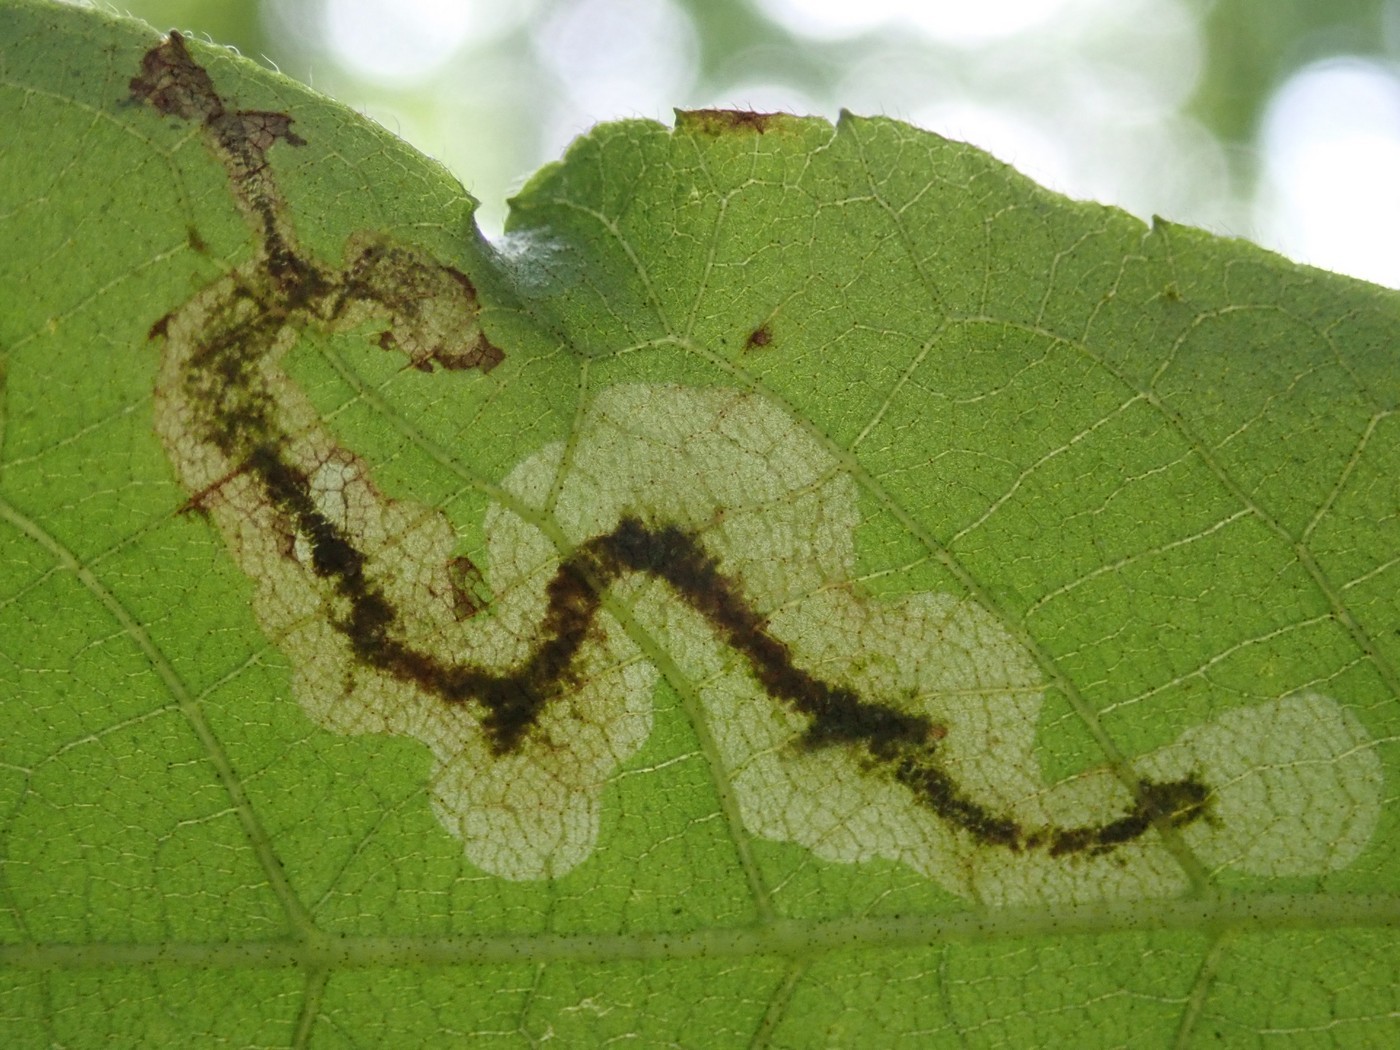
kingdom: Animalia
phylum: Arthropoda
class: Insecta
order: Lepidoptera
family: Gracillariidae
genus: Cameraria
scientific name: Cameraria caryaefoliella
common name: Pecan leafminer moth
